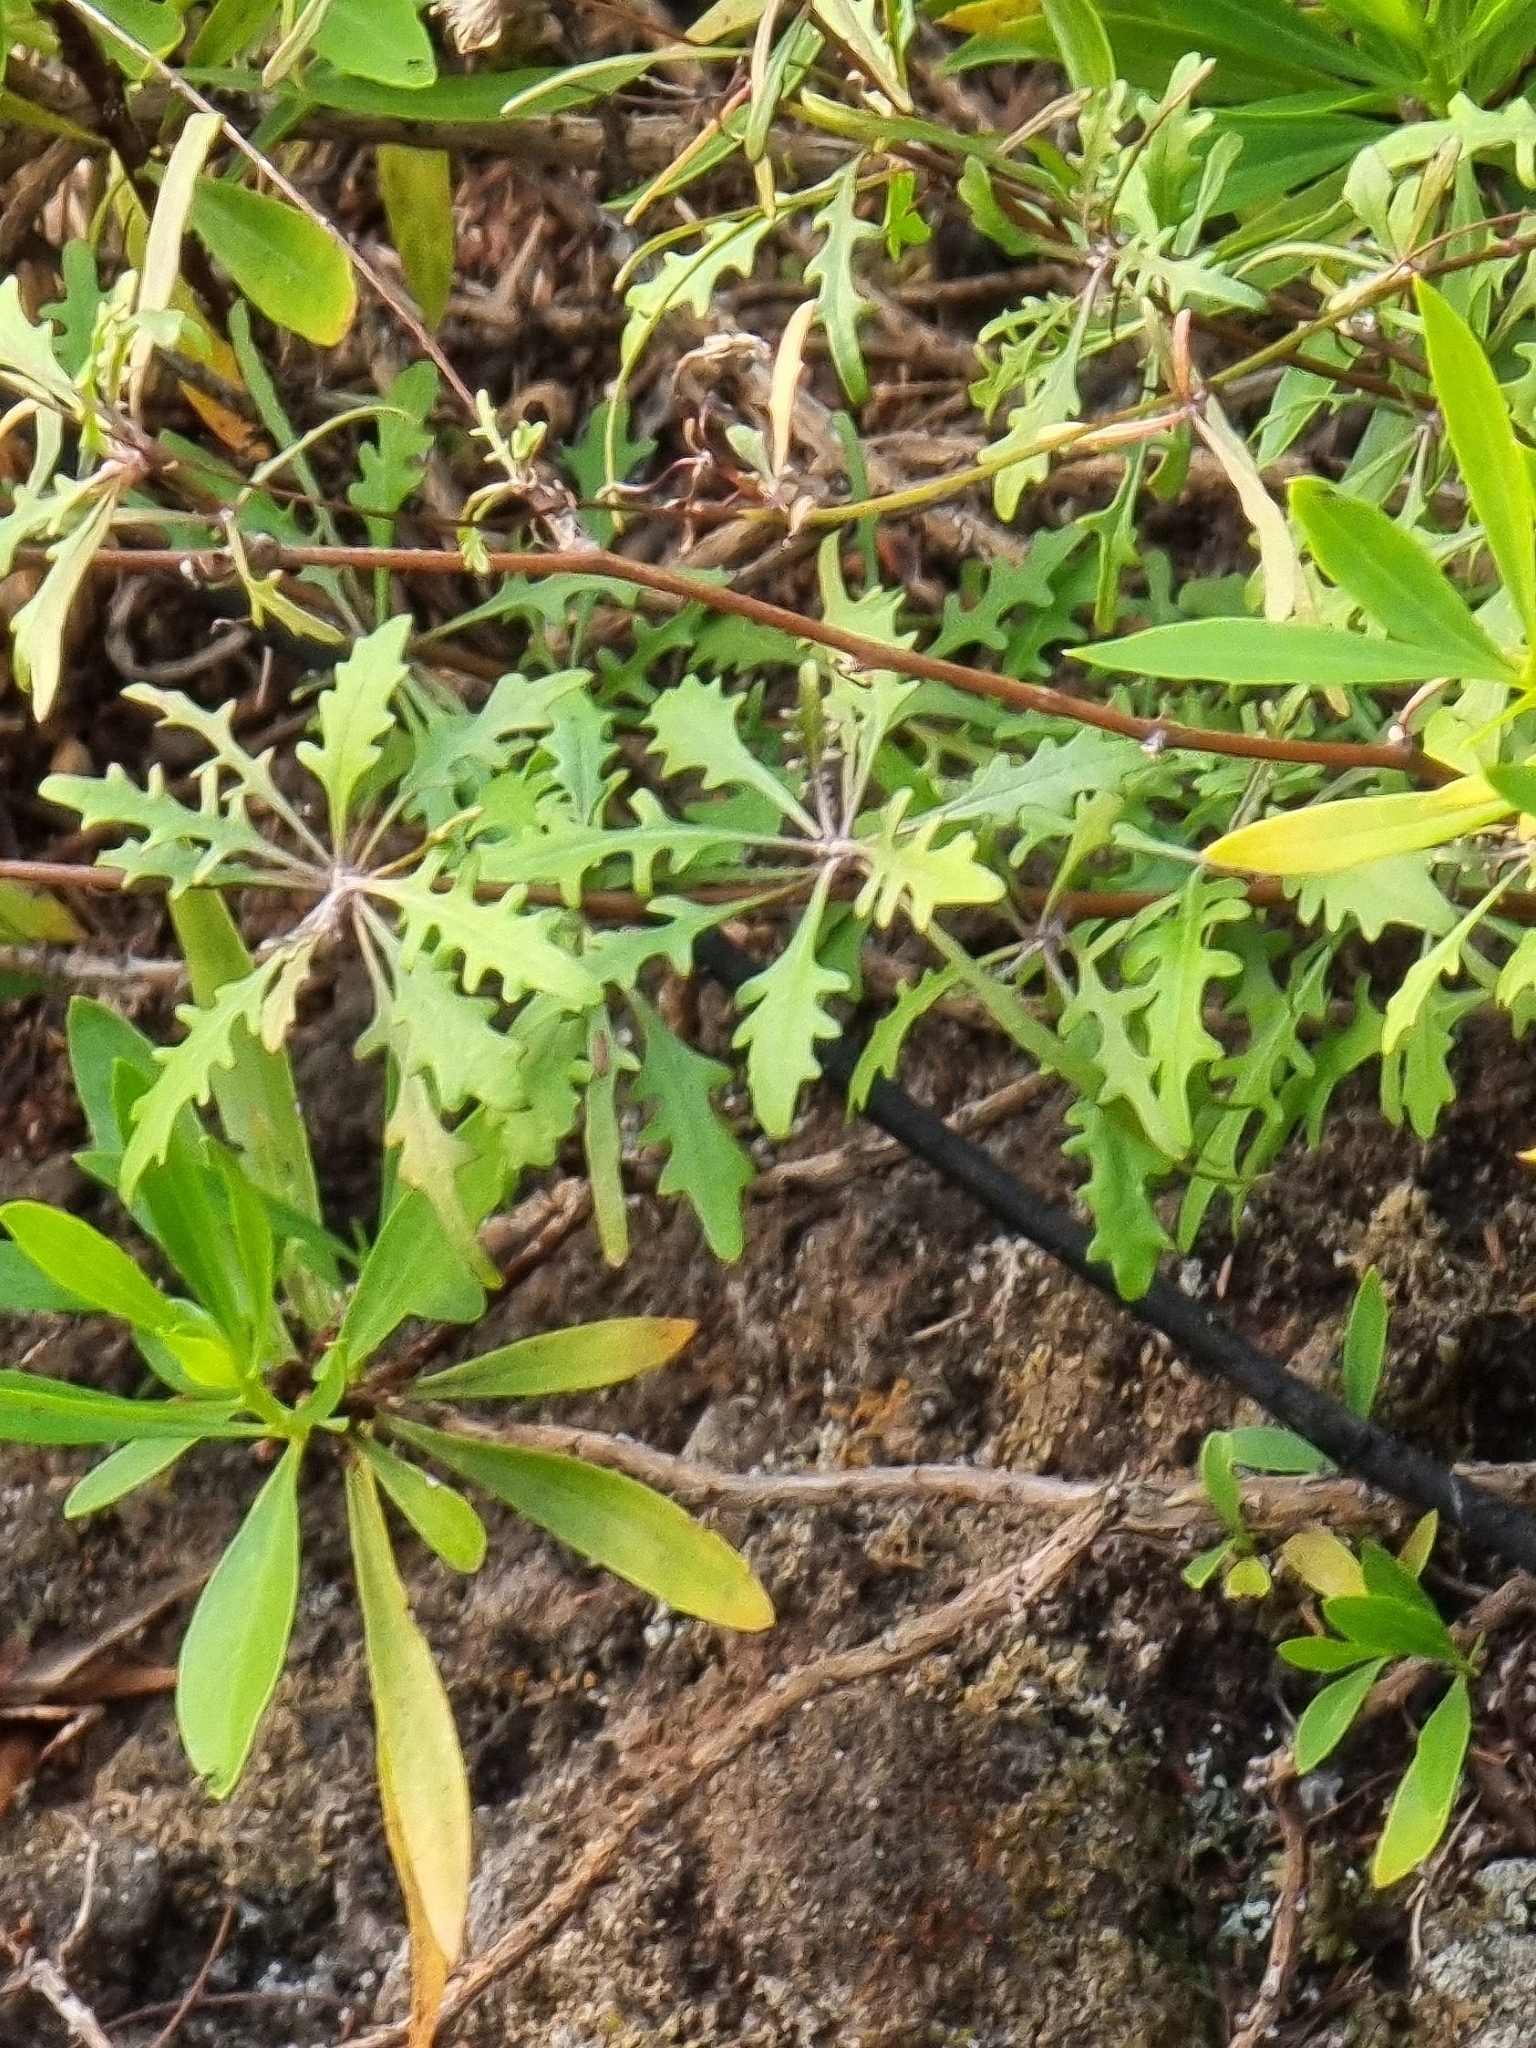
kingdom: Plantae
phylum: Tracheophyta
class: Magnoliopsida
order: Asterales
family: Asteraceae
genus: Tolpis
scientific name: Tolpis succulenta
